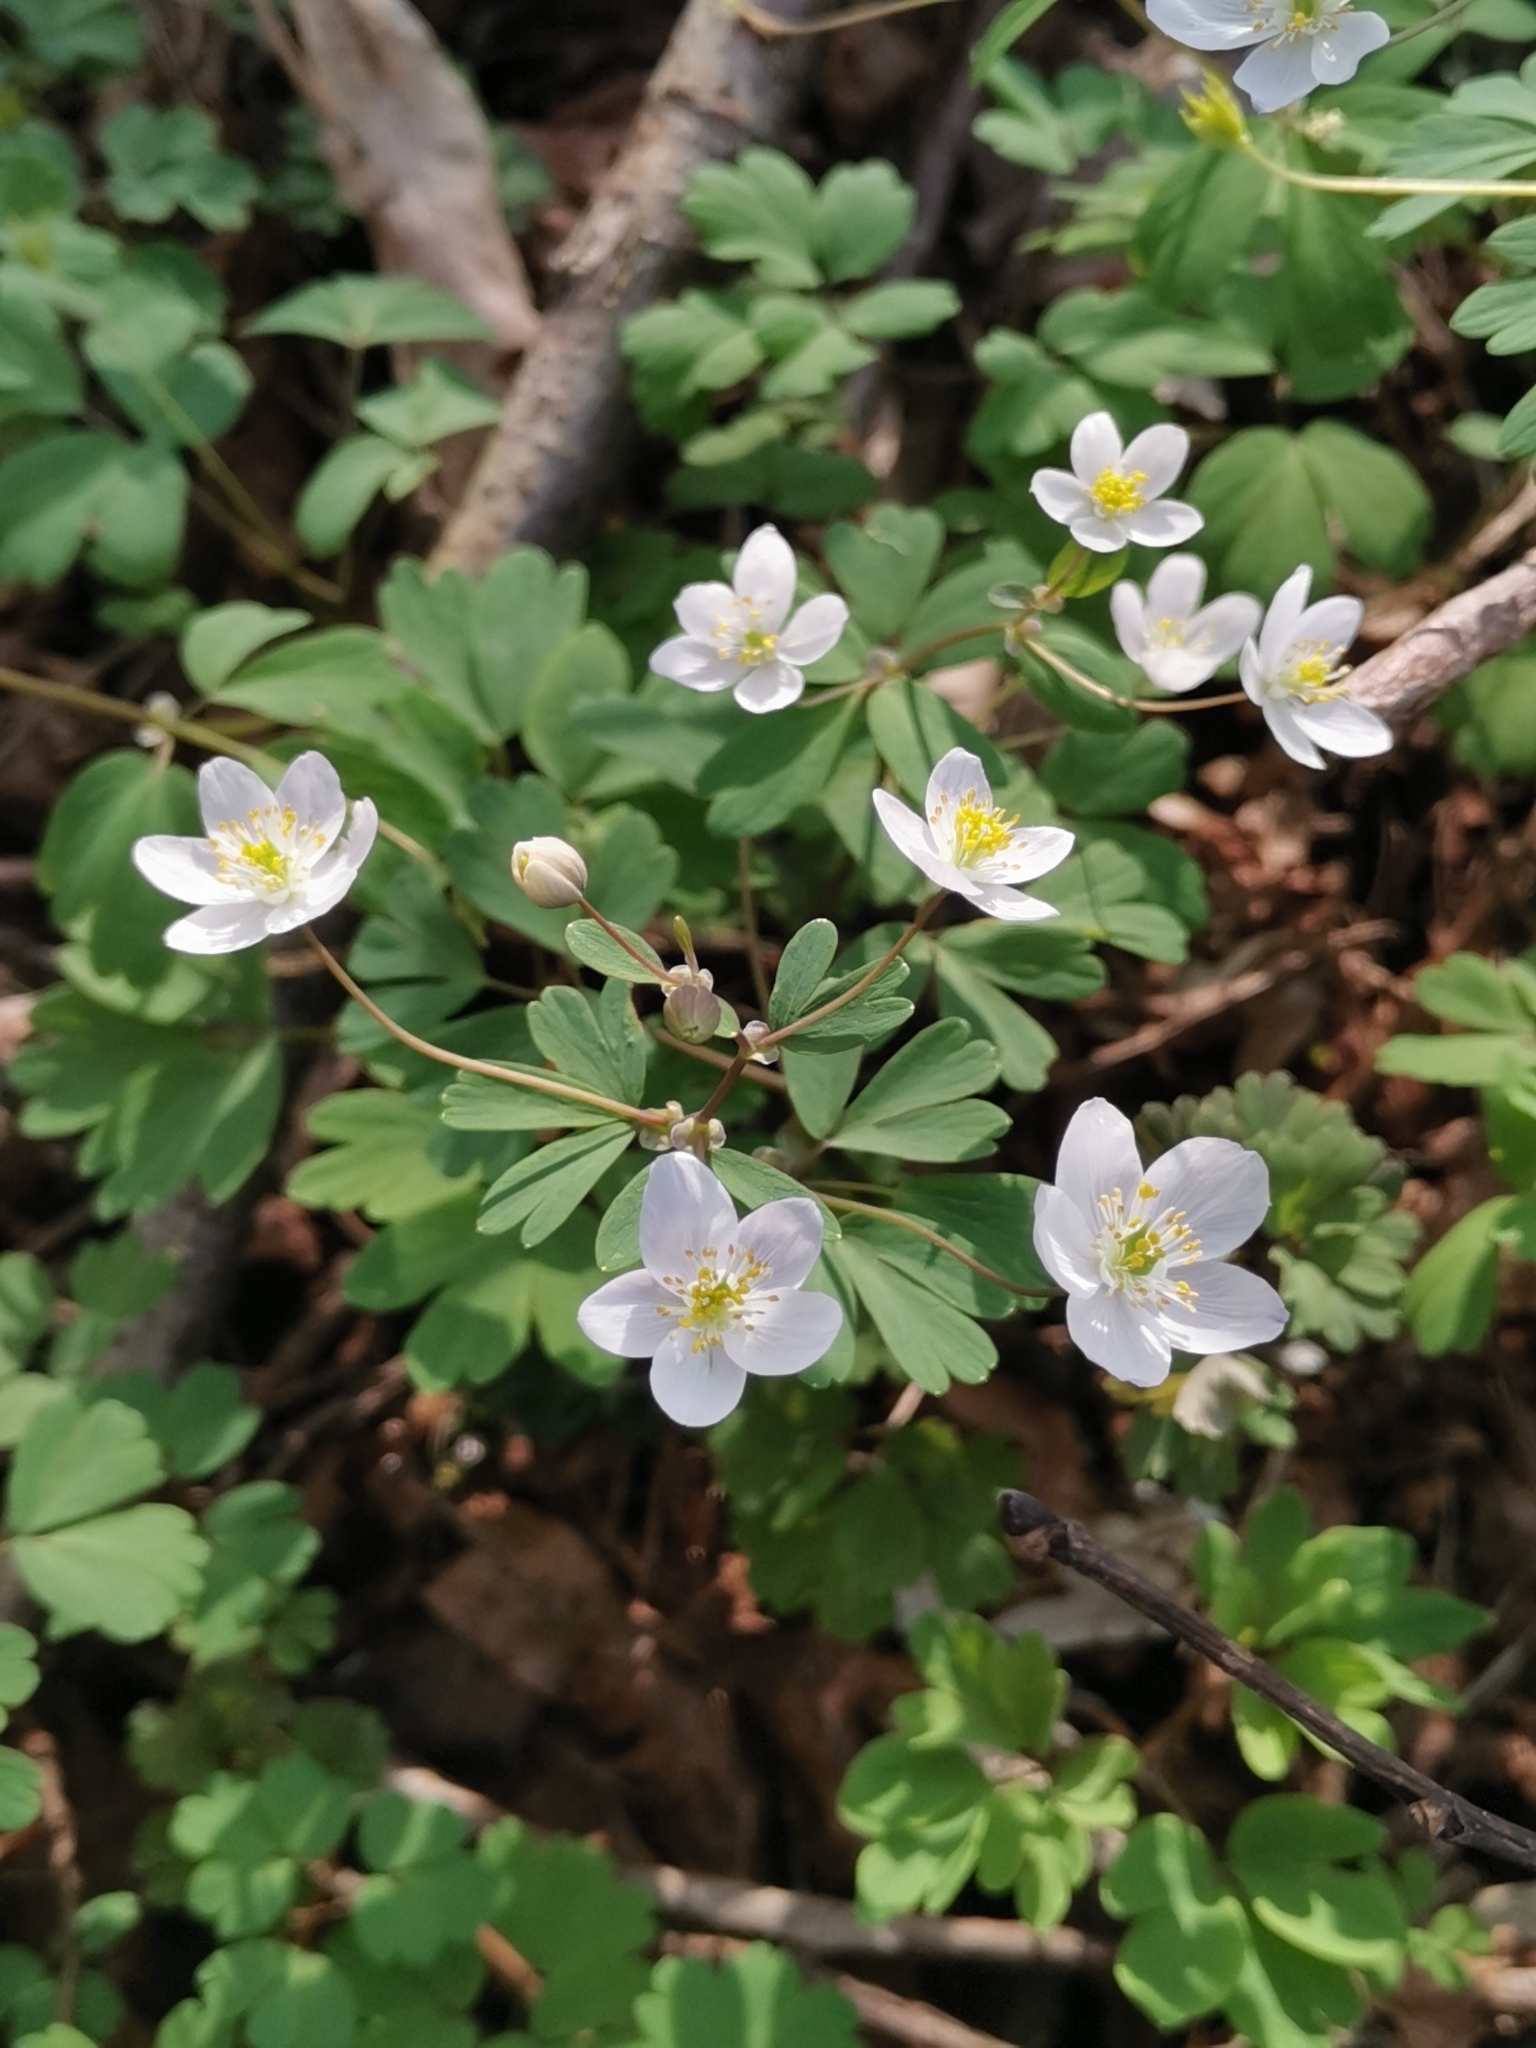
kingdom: Plantae
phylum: Tracheophyta
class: Magnoliopsida
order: Ranunculales
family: Ranunculaceae
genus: Isopyrum
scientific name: Isopyrum thalictroides
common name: Isopyrum
